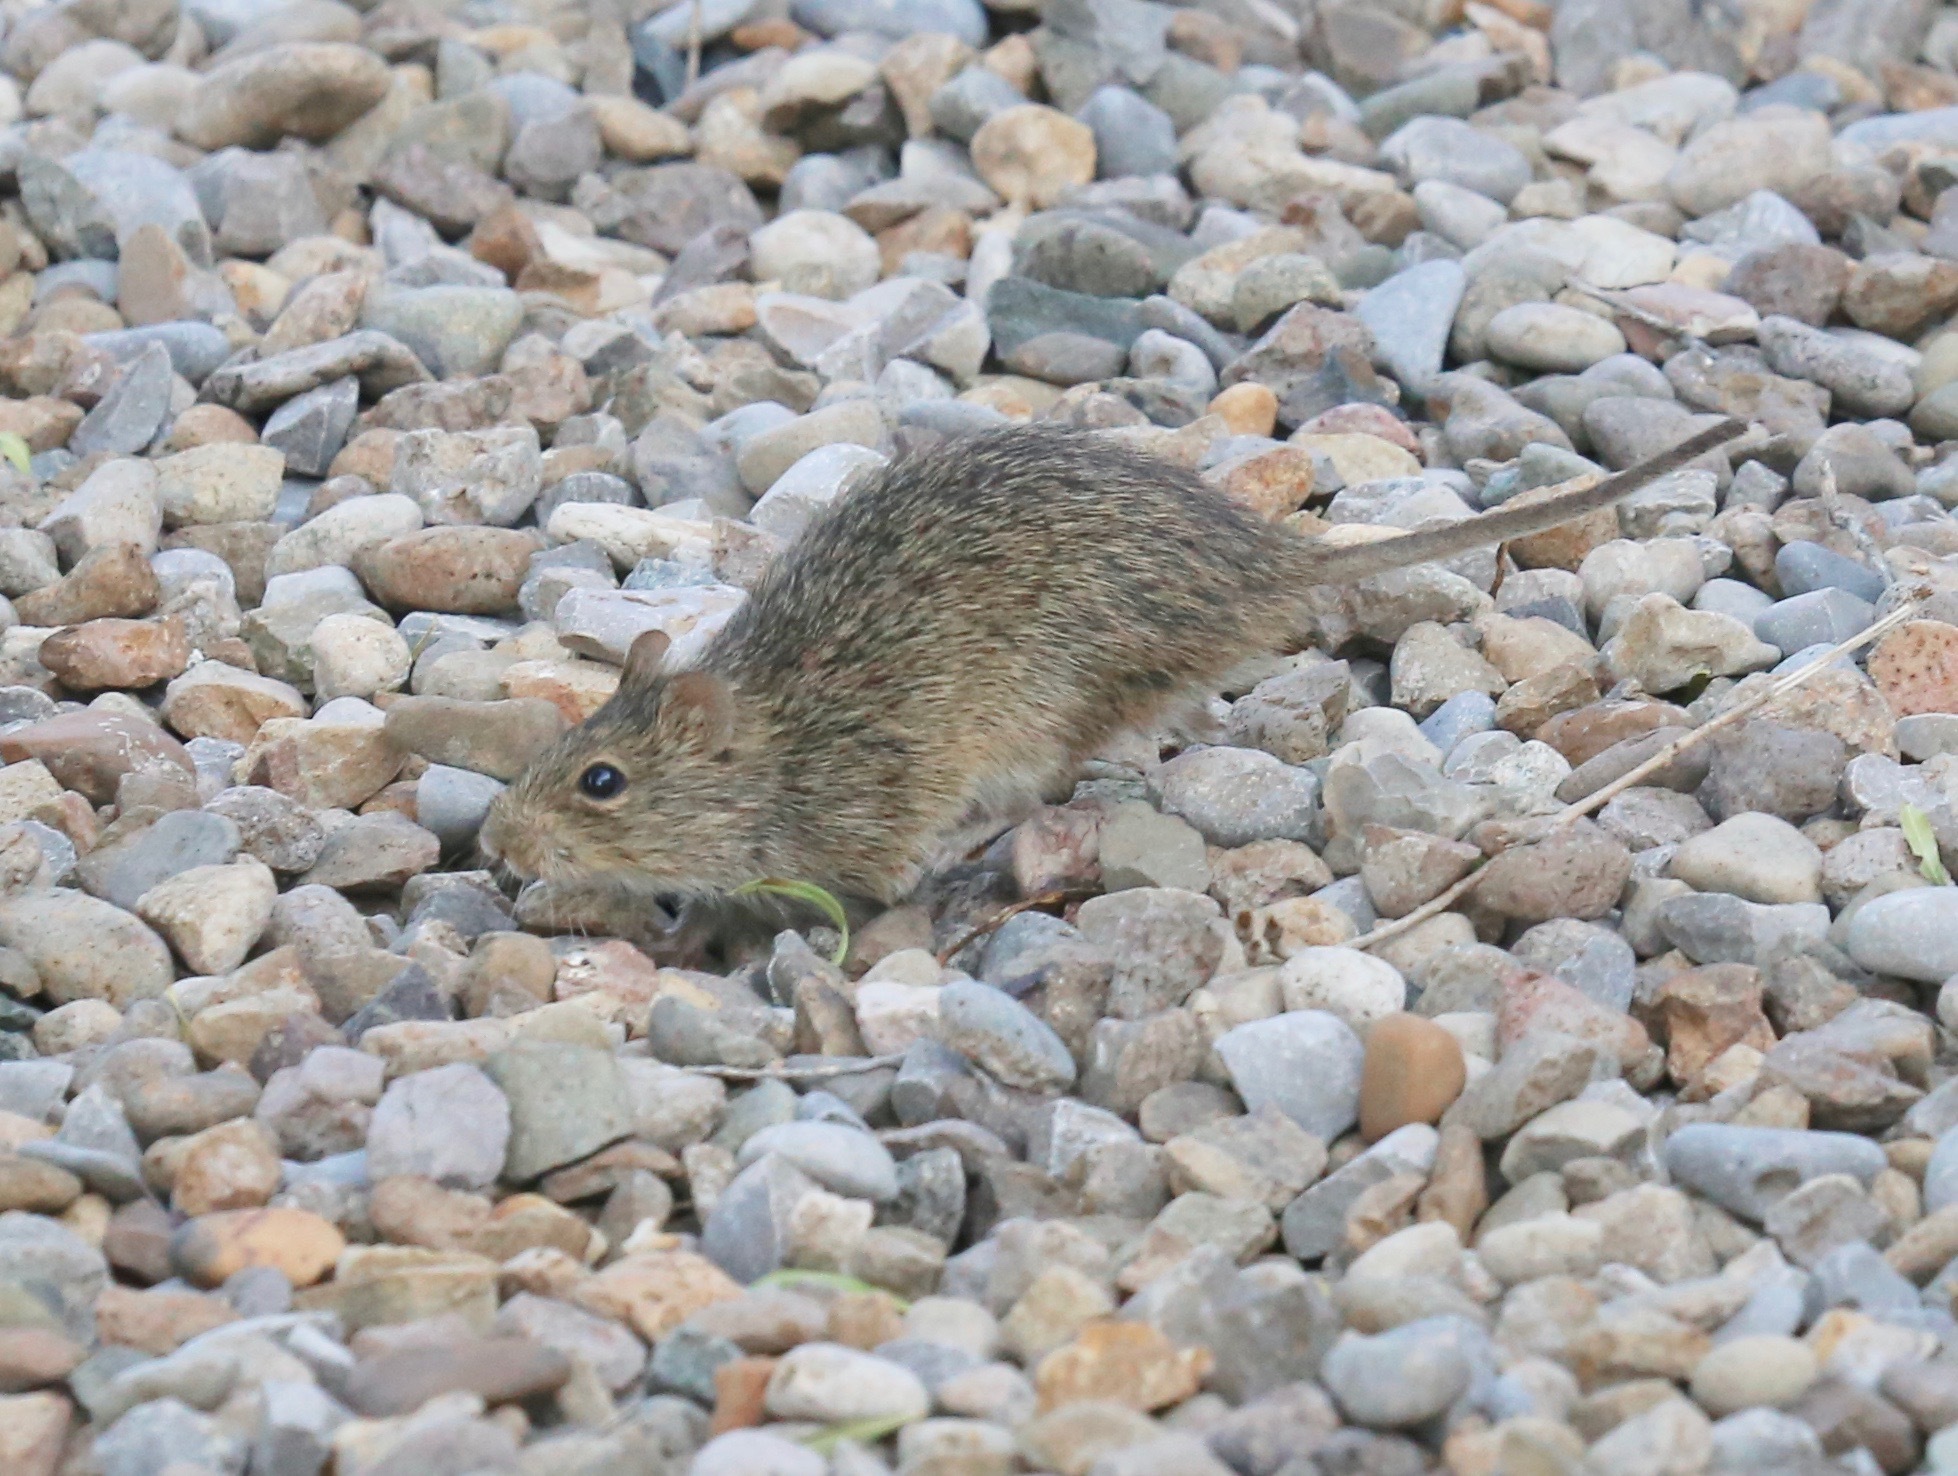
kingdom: Animalia
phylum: Chordata
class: Mammalia
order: Rodentia
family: Cricetidae
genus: Sigmodon
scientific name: Sigmodon hispidus
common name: Hispid cotton rat
